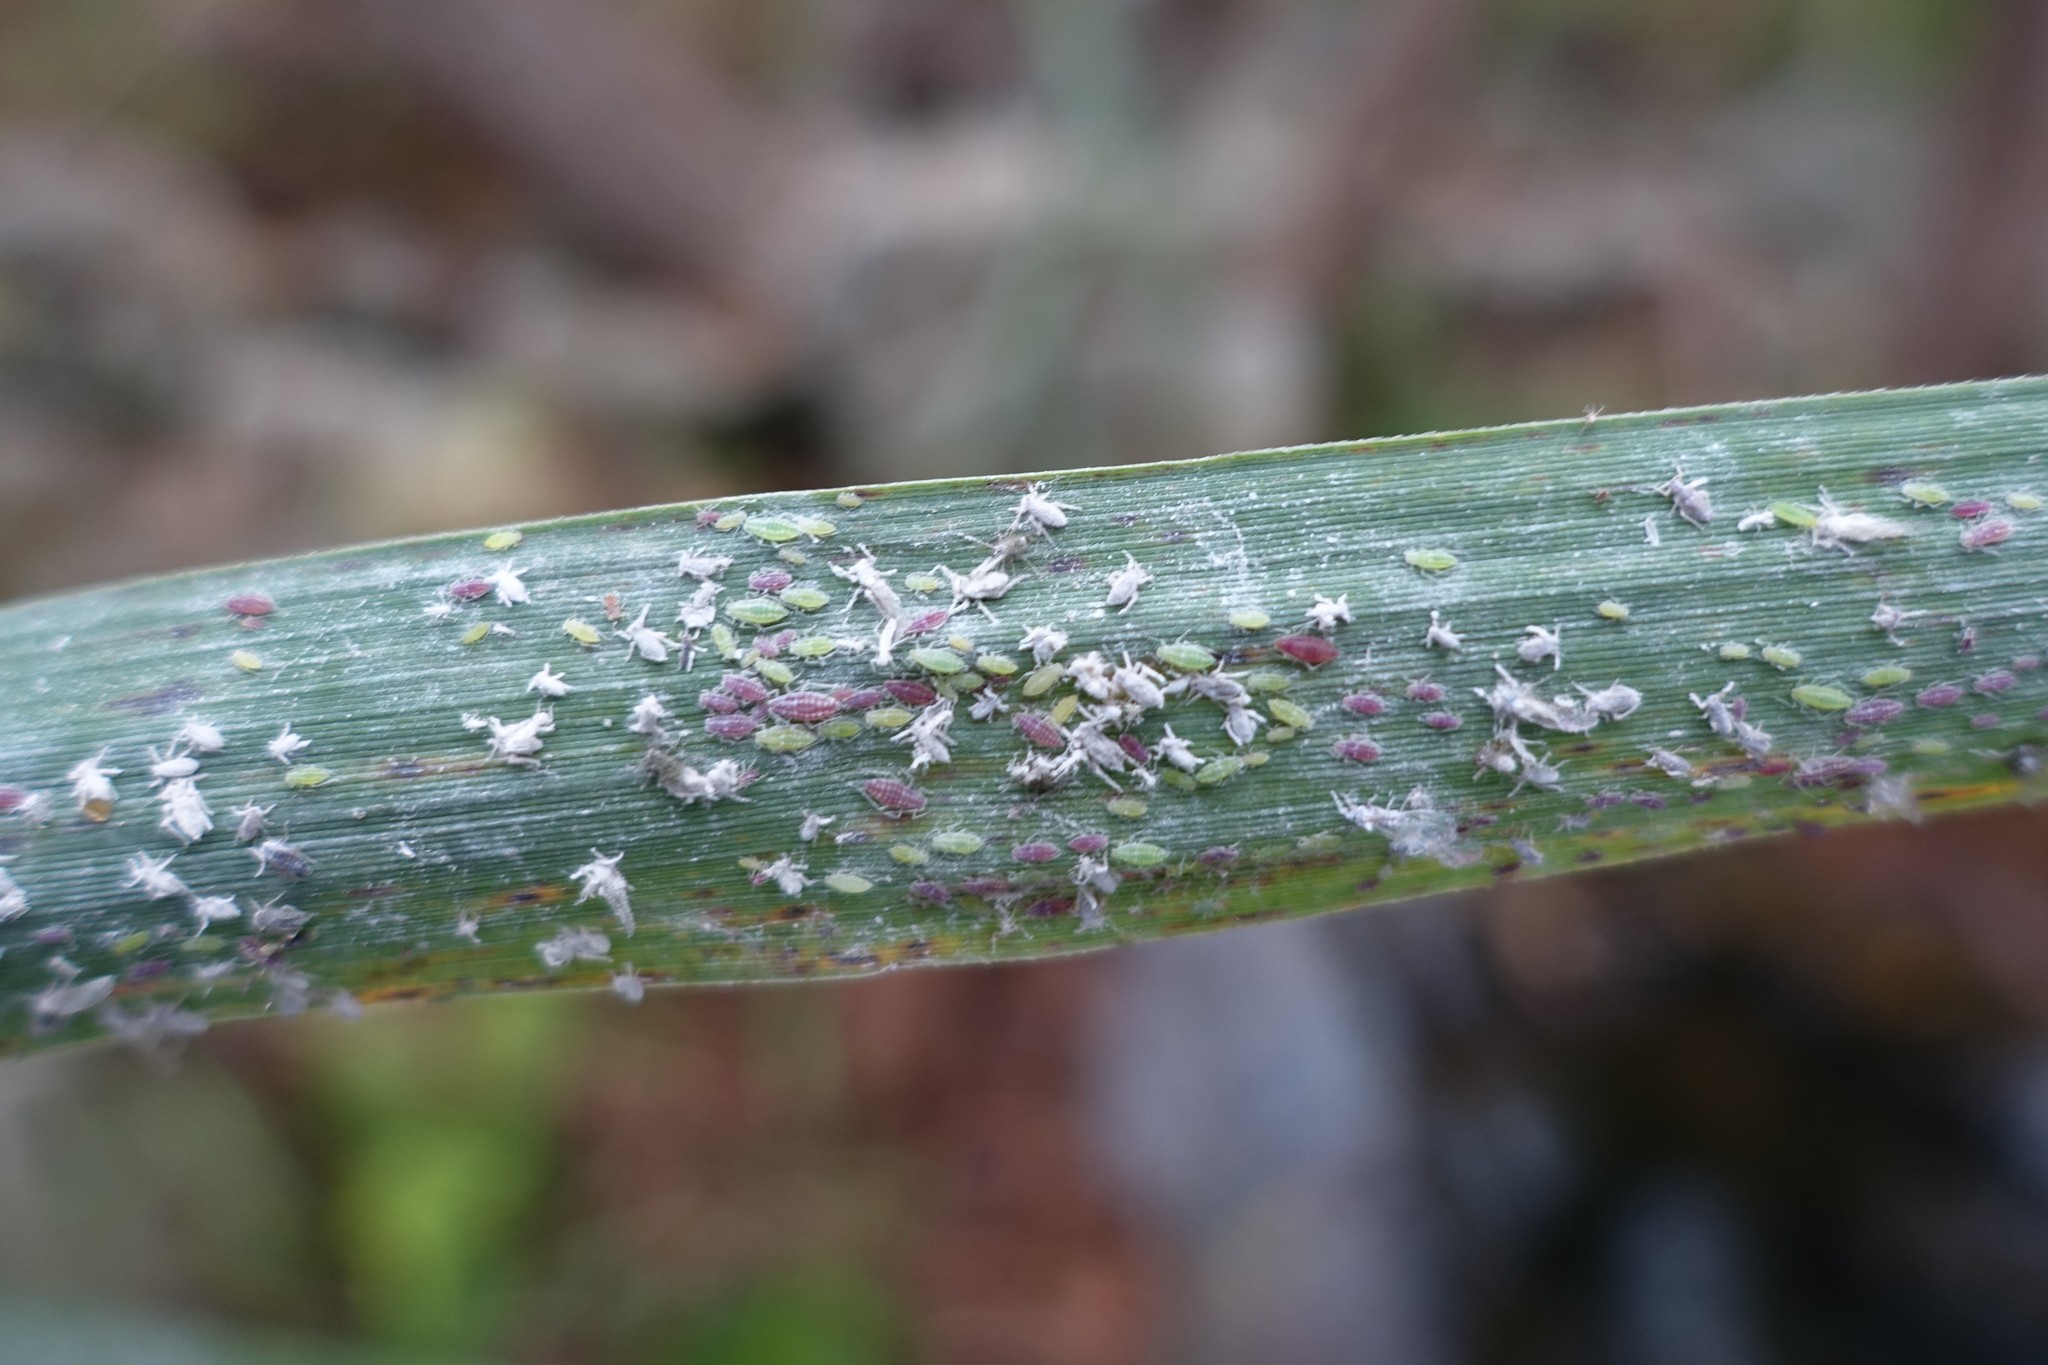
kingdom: Animalia
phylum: Arthropoda
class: Insecta
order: Hemiptera
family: Aphididae
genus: Hyalopterus
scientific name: Hyalopterus
